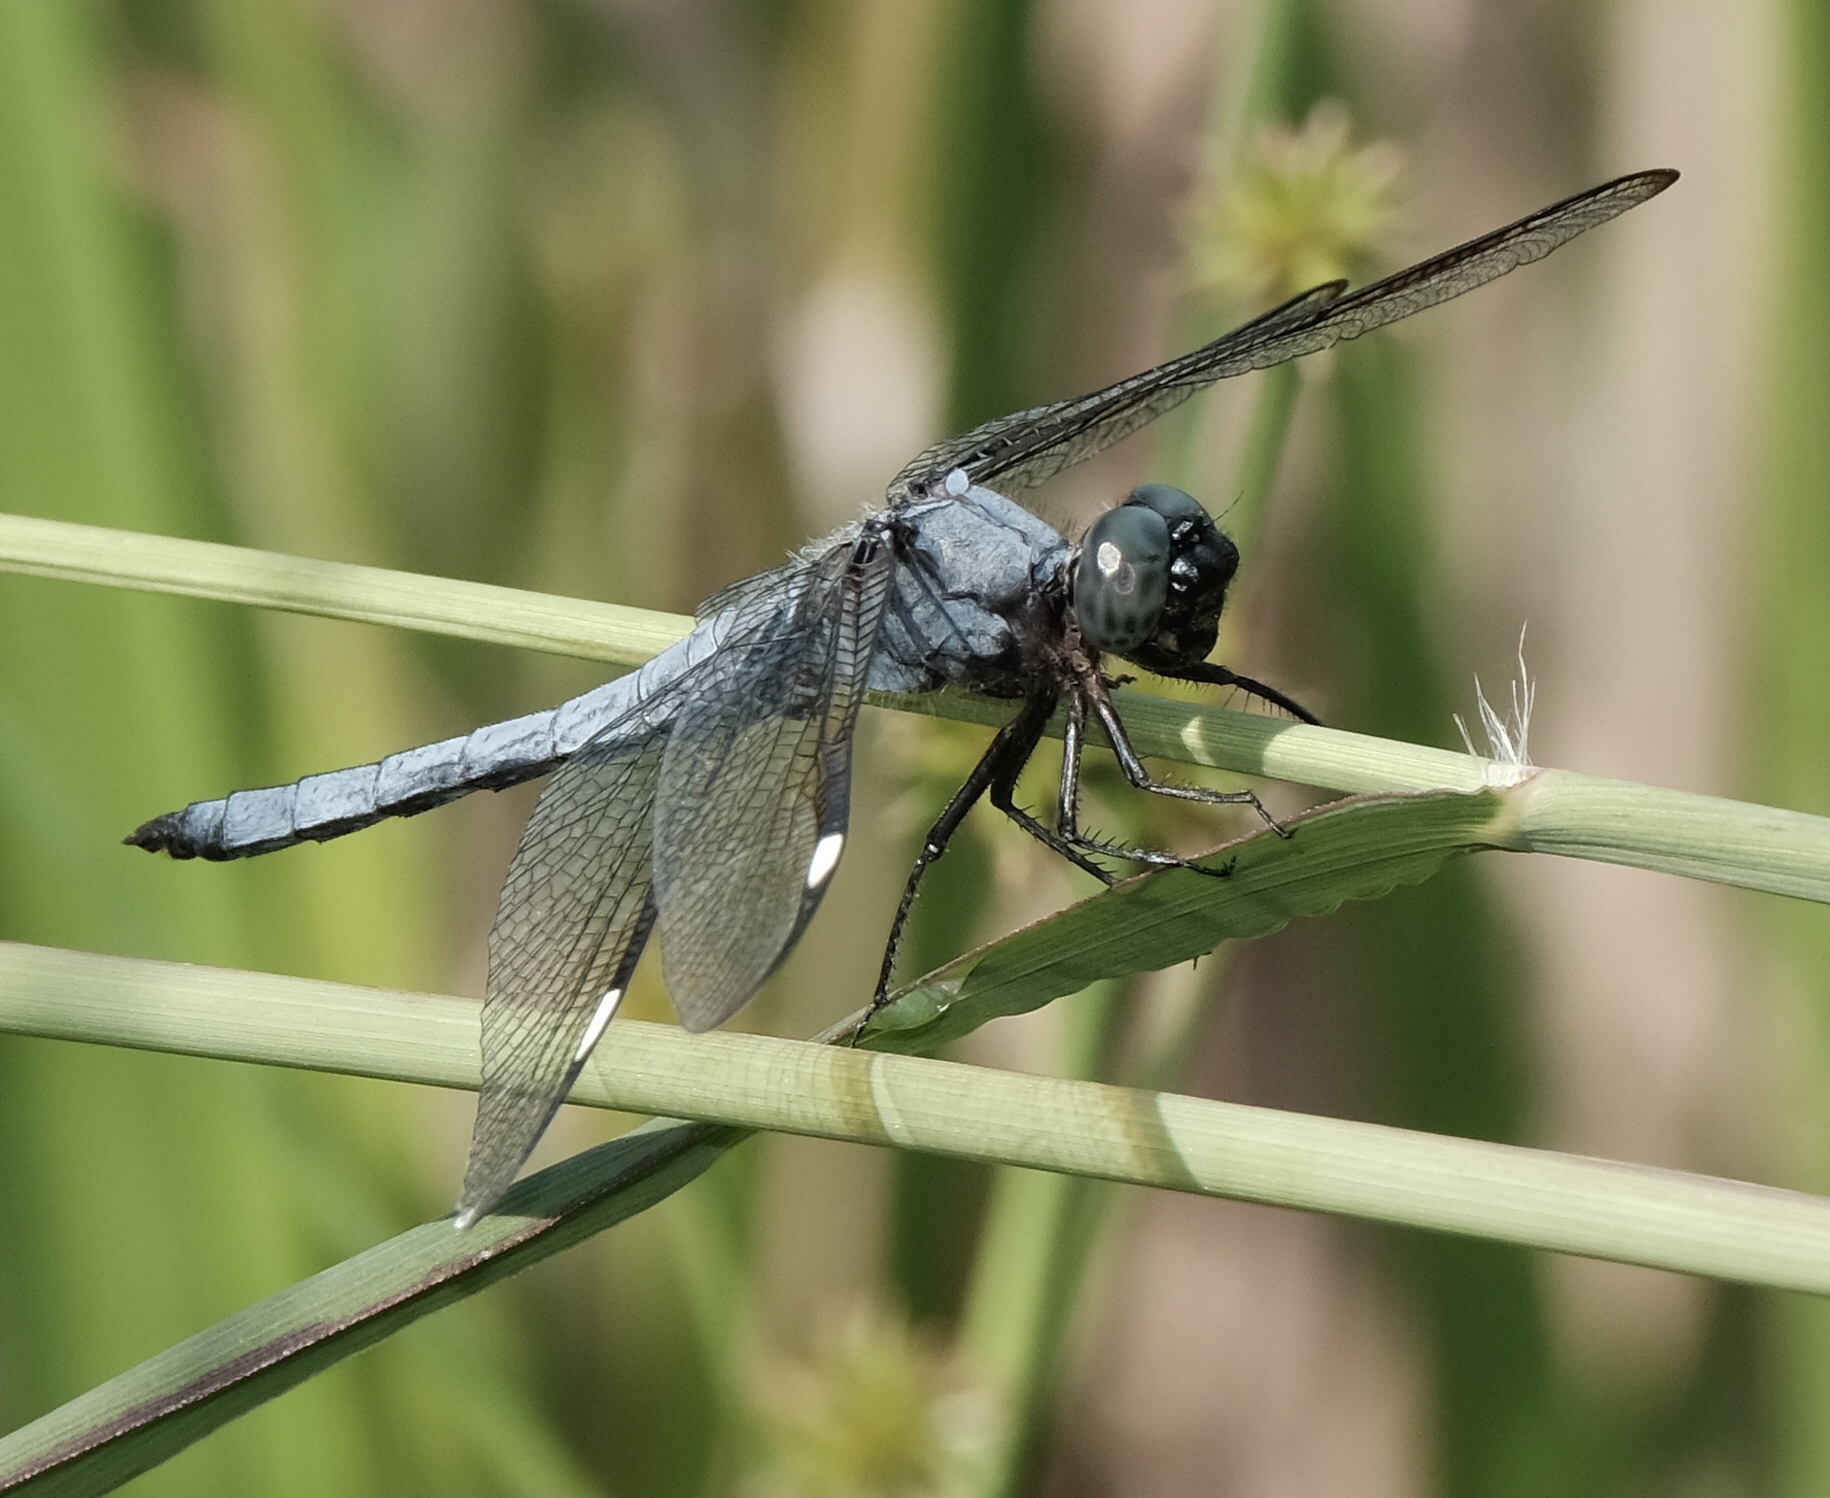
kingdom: Animalia
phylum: Arthropoda
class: Insecta
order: Odonata
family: Libellulidae
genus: Libellula
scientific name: Libellula cyanea
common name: Spangled skimmer
